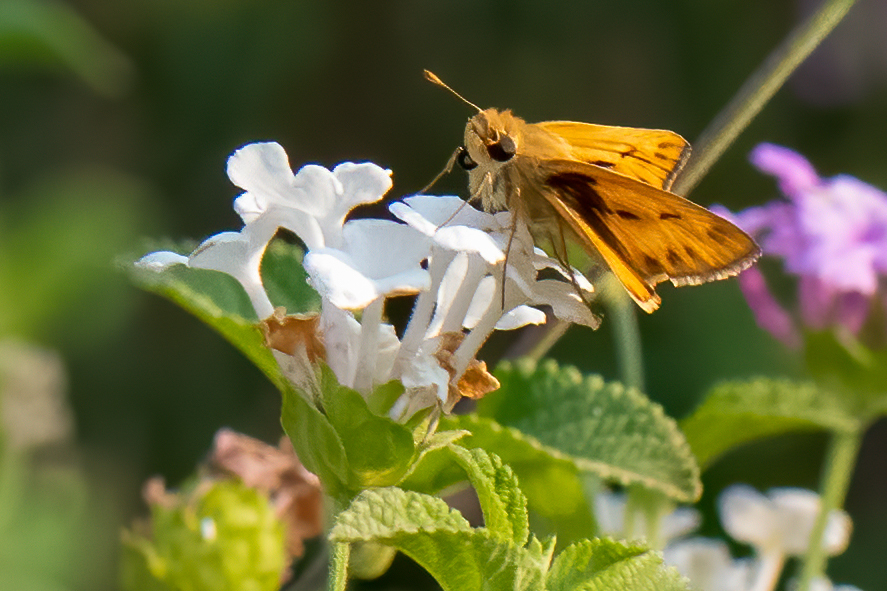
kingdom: Animalia
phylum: Arthropoda
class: Insecta
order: Lepidoptera
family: Hesperiidae
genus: Hylephila
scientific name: Hylephila phyleus
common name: Fiery skipper
